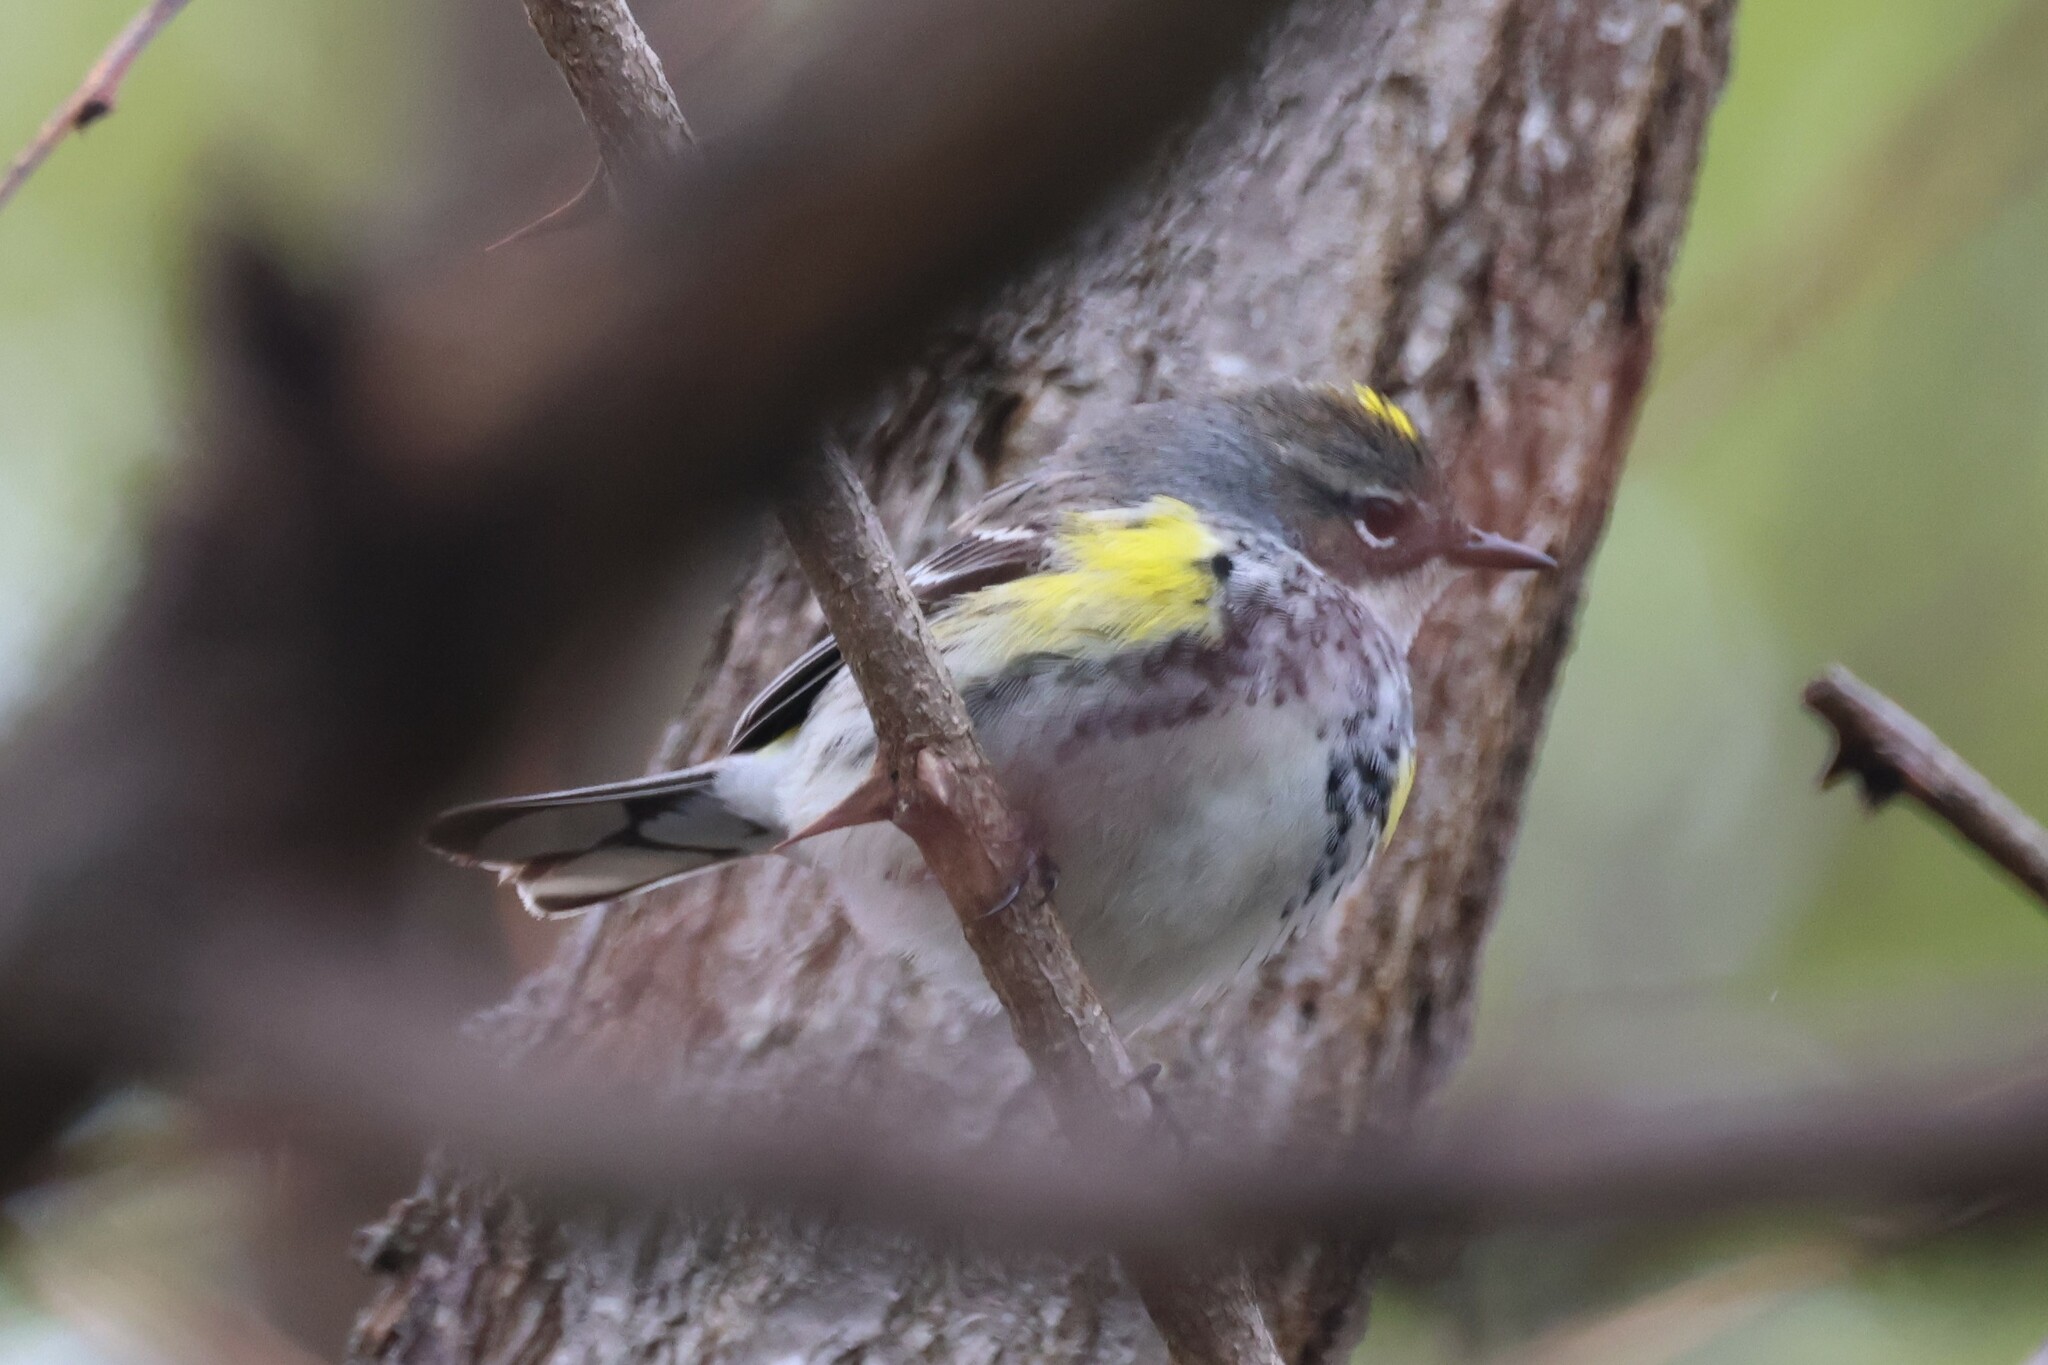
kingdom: Animalia
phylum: Chordata
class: Aves
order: Passeriformes
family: Parulidae
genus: Setophaga
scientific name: Setophaga coronata
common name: Myrtle warbler
